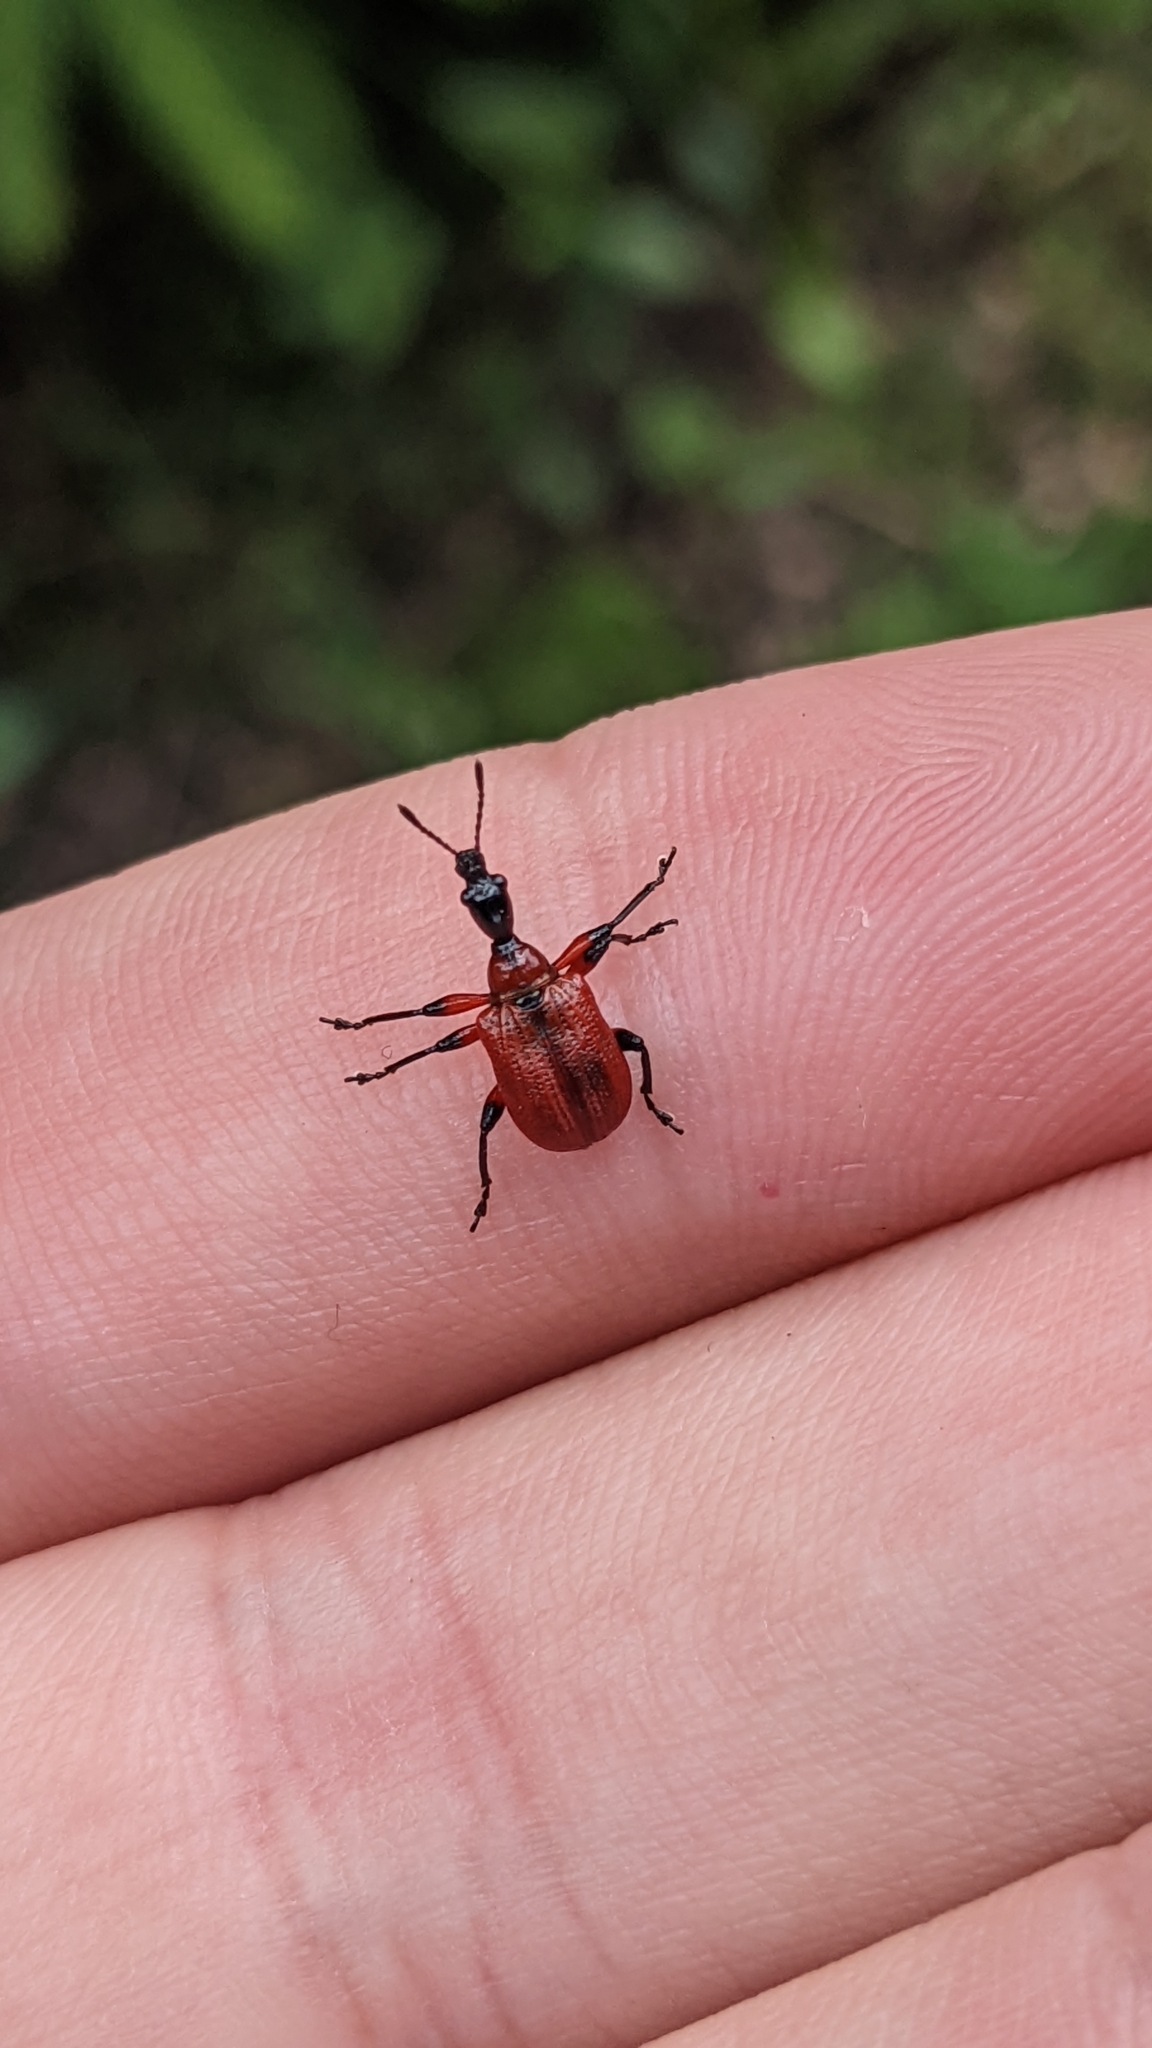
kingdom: Animalia
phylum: Arthropoda
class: Insecta
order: Coleoptera
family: Attelabidae
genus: Apoderus
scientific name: Apoderus coryli
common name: Hazel leaf roller
